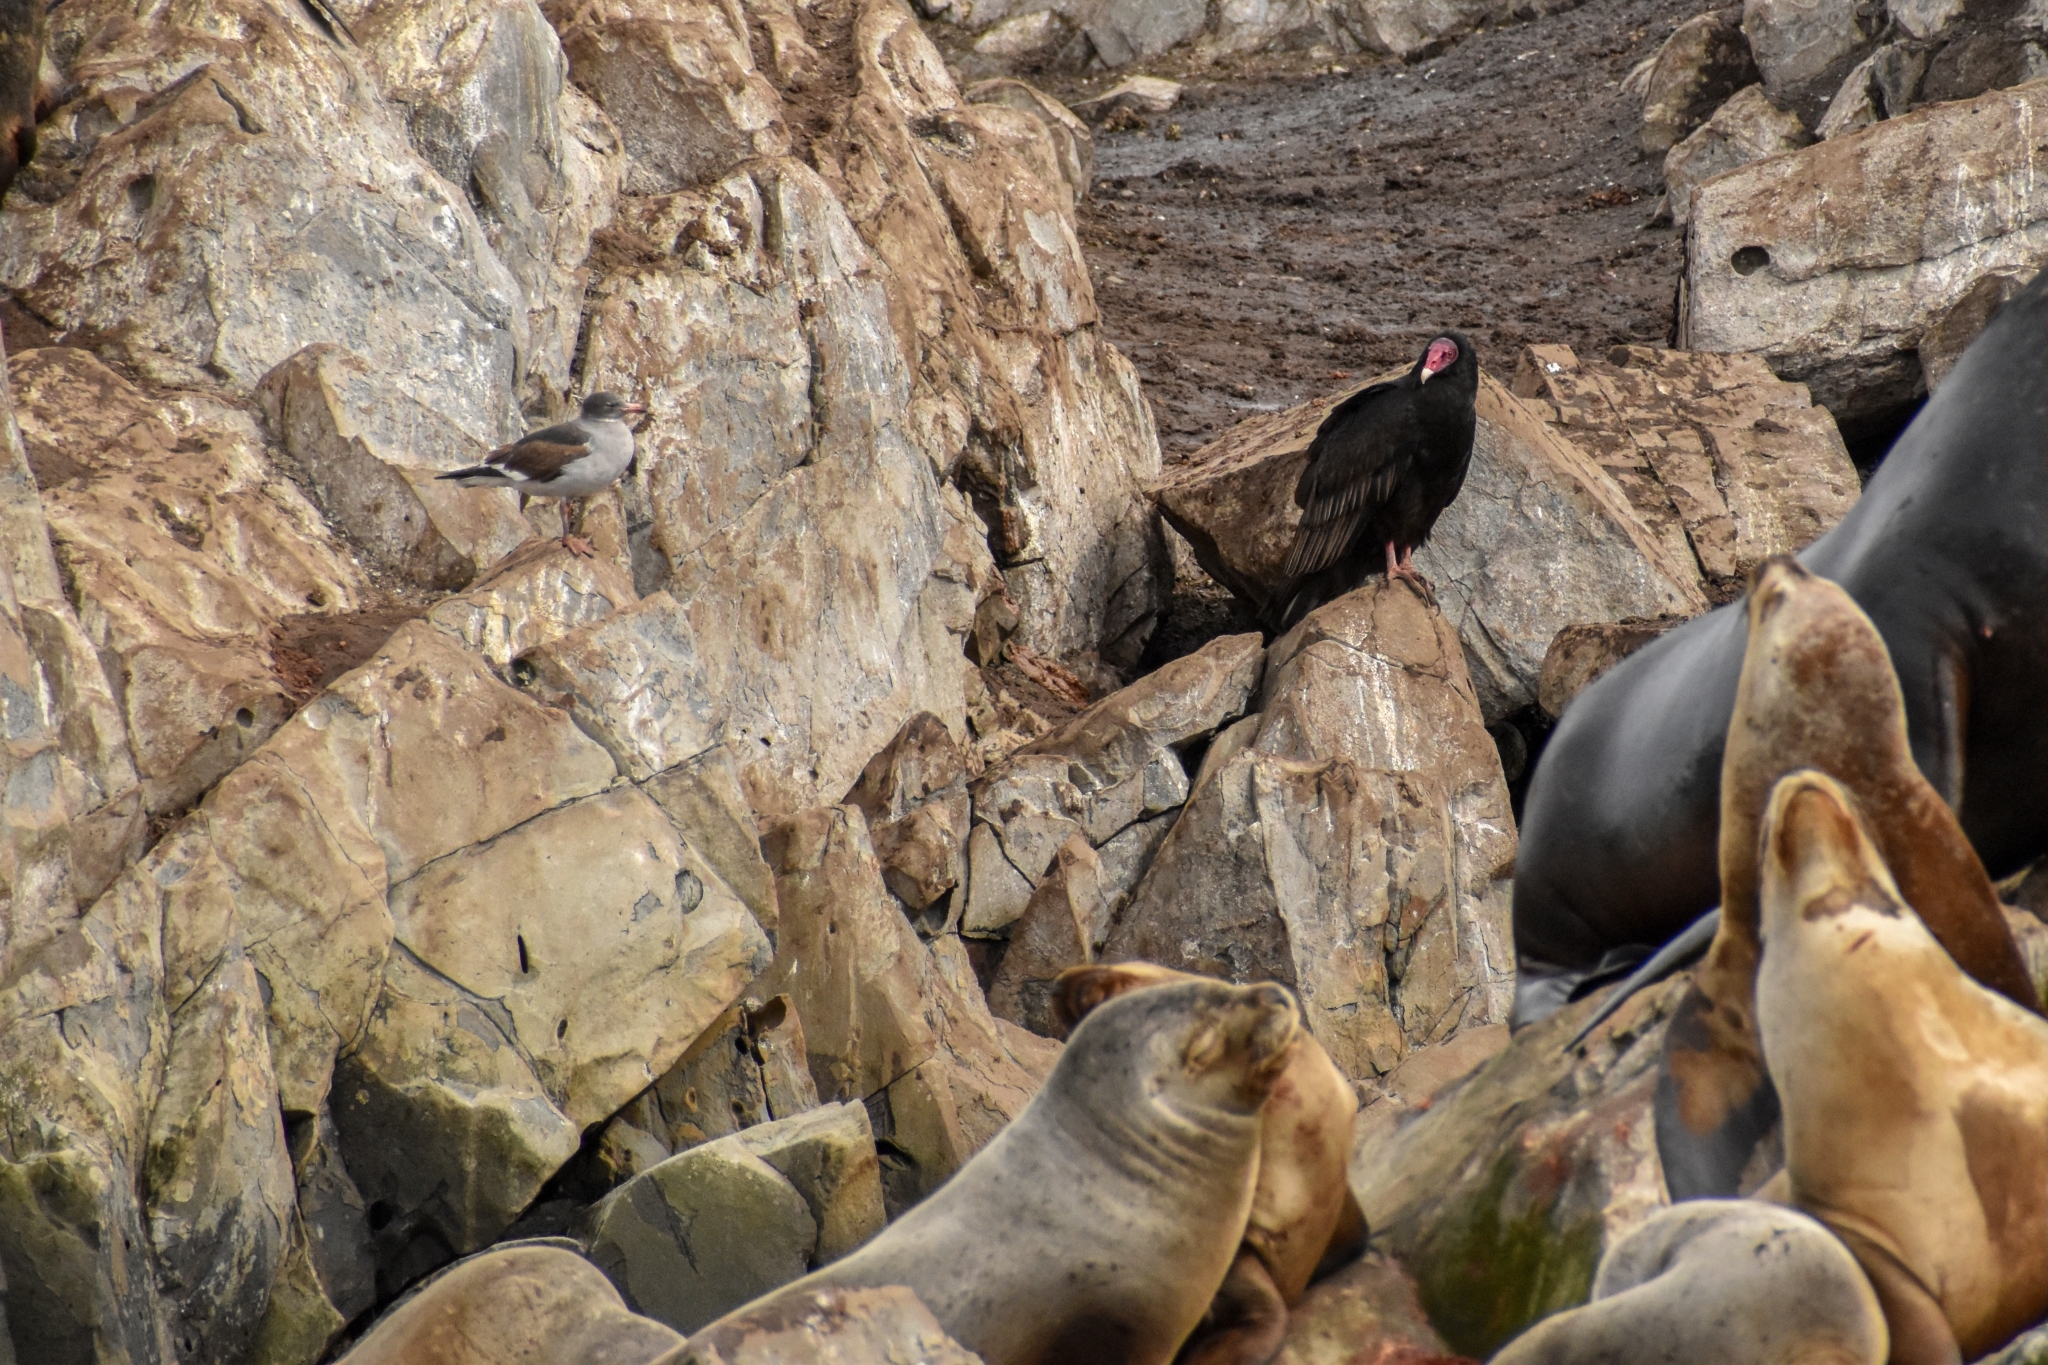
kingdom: Animalia
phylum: Chordata
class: Aves
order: Accipitriformes
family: Cathartidae
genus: Cathartes
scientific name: Cathartes aura
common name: Turkey vulture
